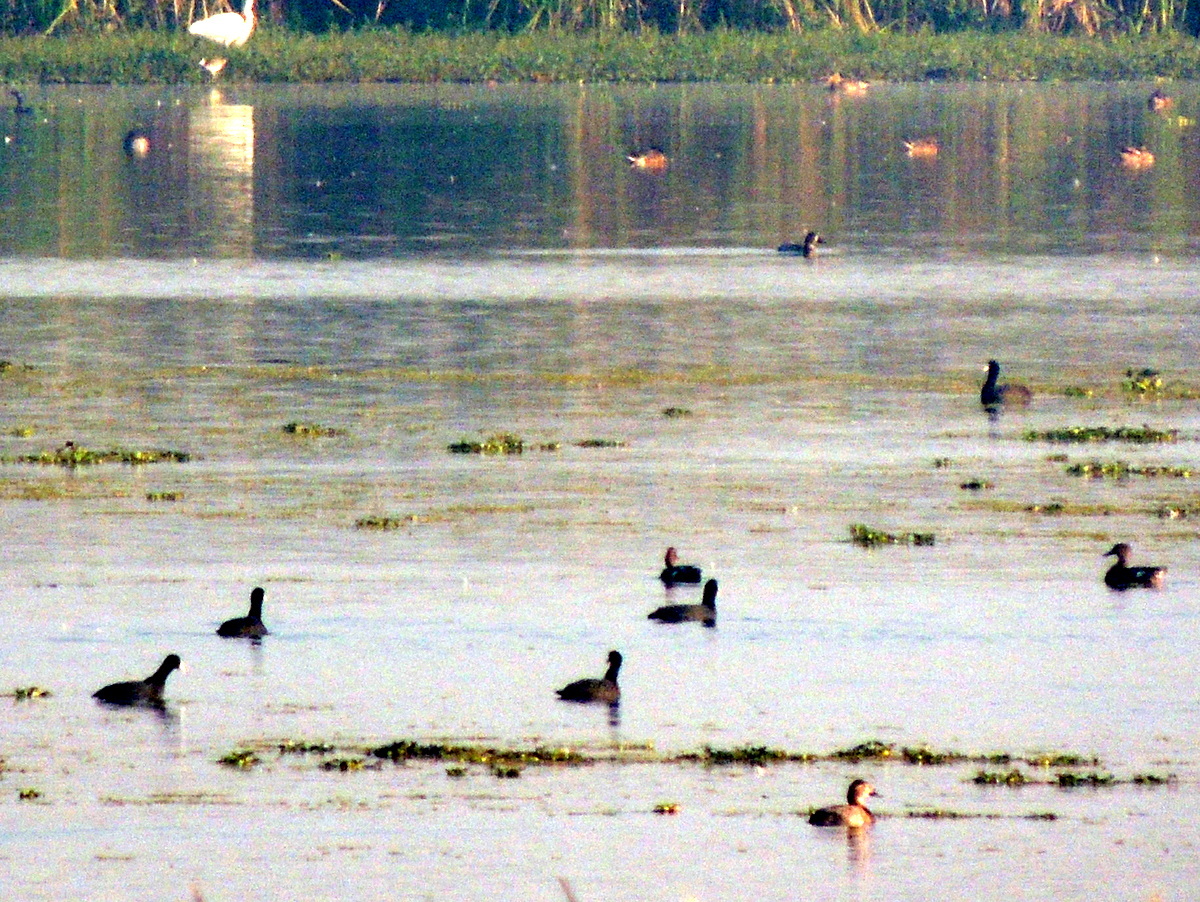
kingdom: Animalia
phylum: Chordata
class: Aves
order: Gruiformes
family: Rallidae
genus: Fulica
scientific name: Fulica atra
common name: Eurasian coot
